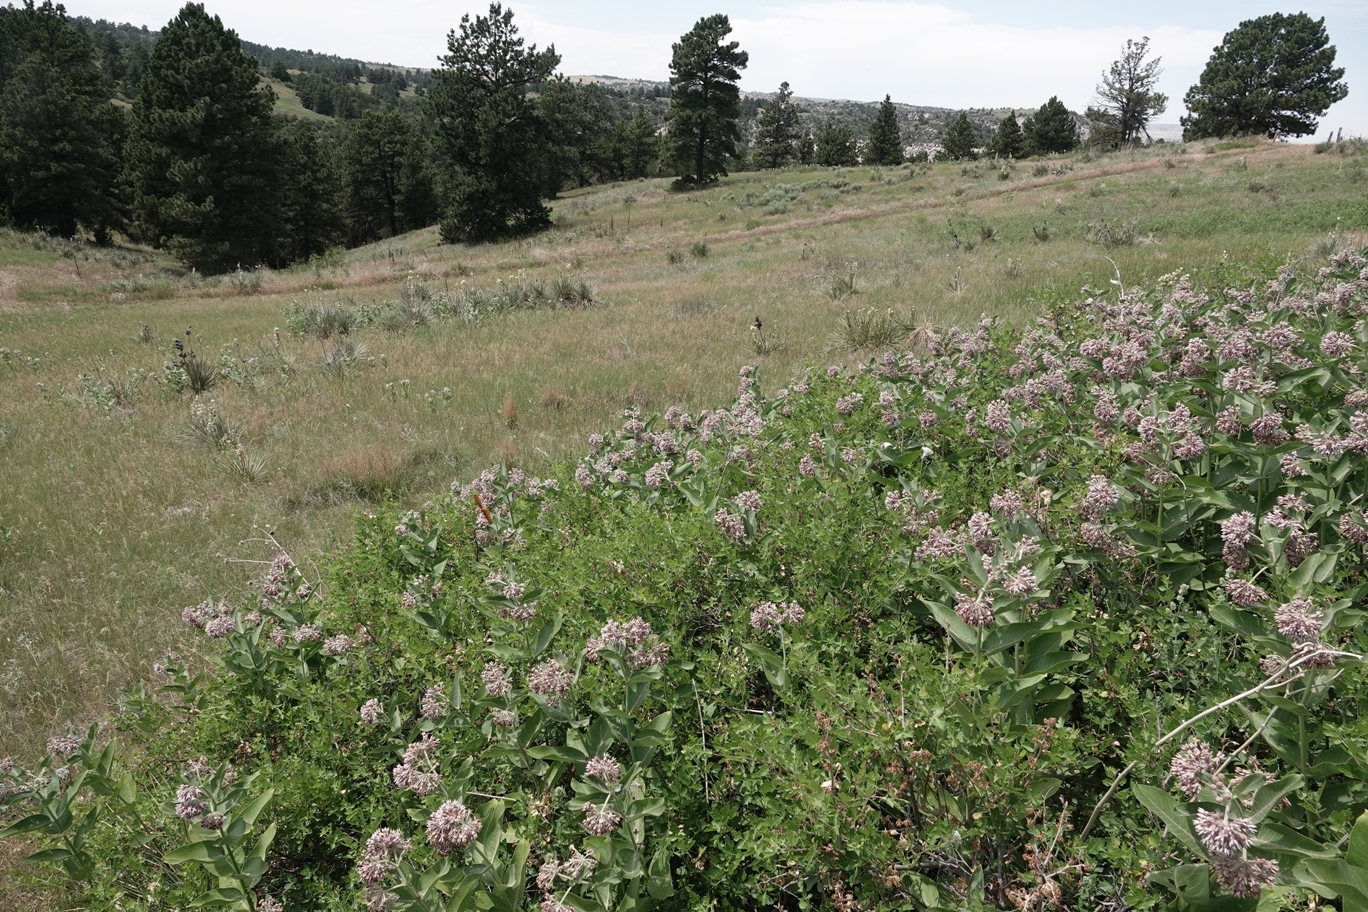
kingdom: Plantae
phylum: Tracheophyta
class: Magnoliopsida
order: Gentianales
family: Apocynaceae
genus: Asclepias
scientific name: Asclepias speciosa
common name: Showy milkweed
